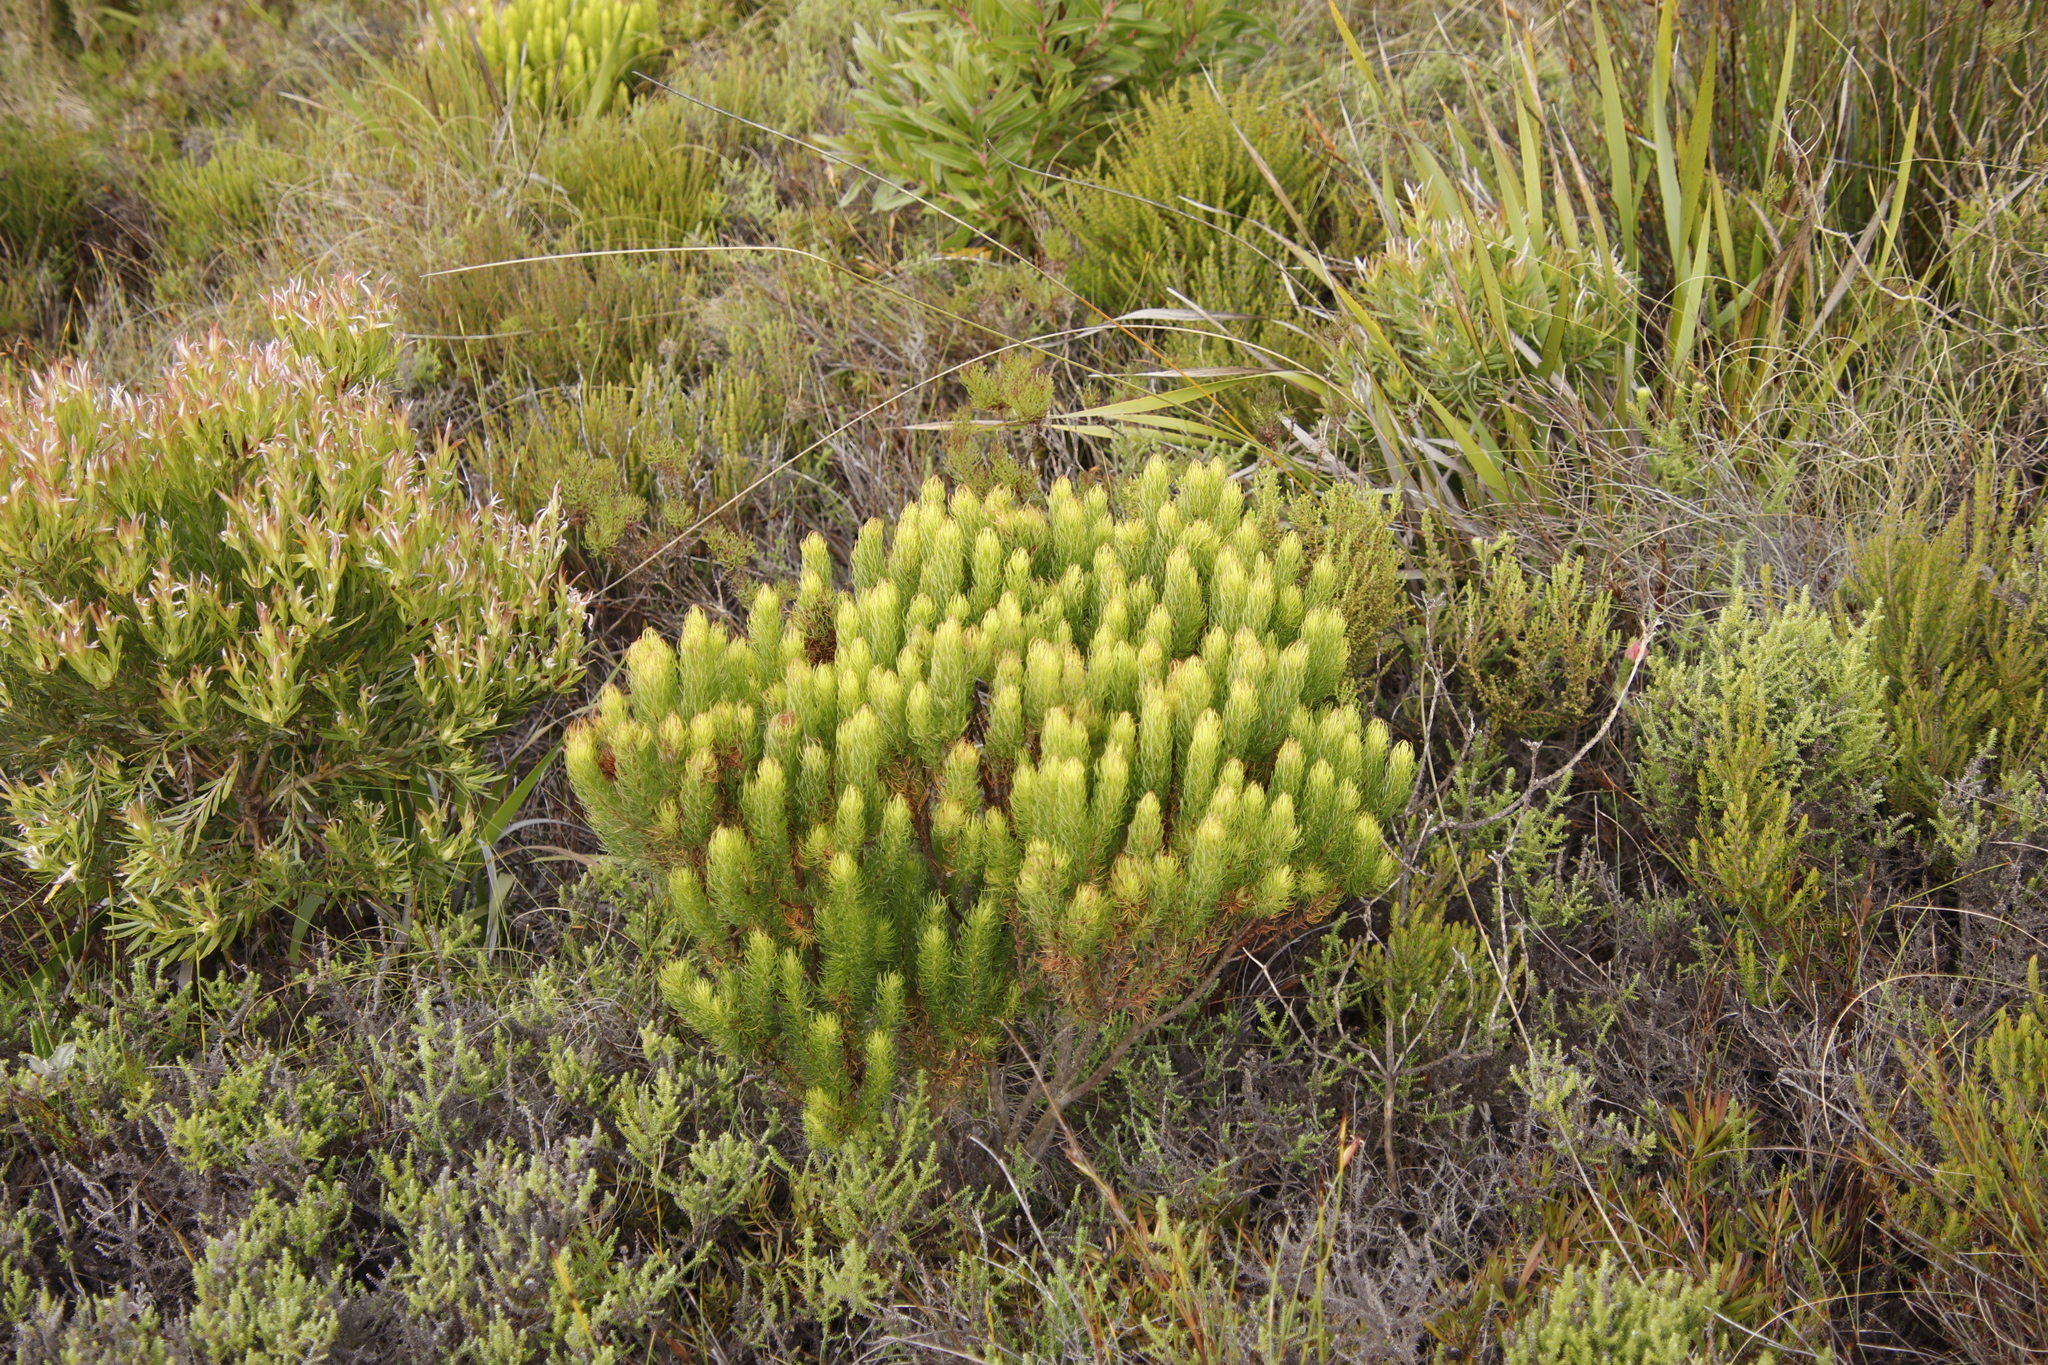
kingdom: Plantae
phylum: Tracheophyta
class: Magnoliopsida
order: Ericales
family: Ericaceae
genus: Erica
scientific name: Erica plukenetii
